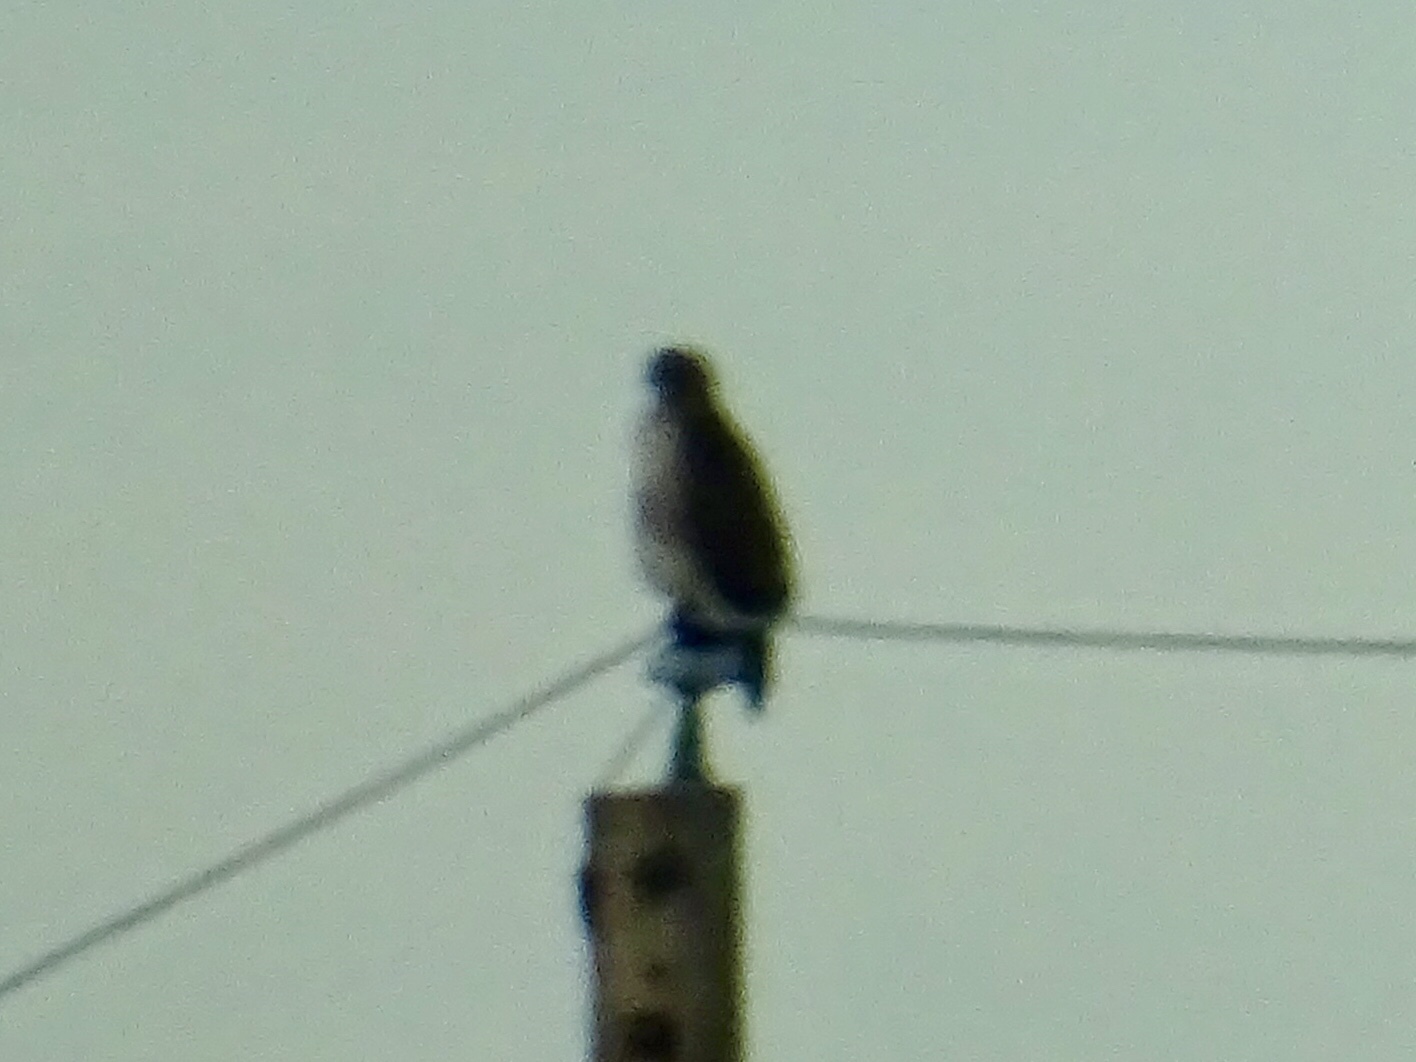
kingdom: Animalia
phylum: Chordata
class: Aves
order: Accipitriformes
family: Accipitridae
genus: Buteo
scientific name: Buteo jamaicensis
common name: Red-tailed hawk
